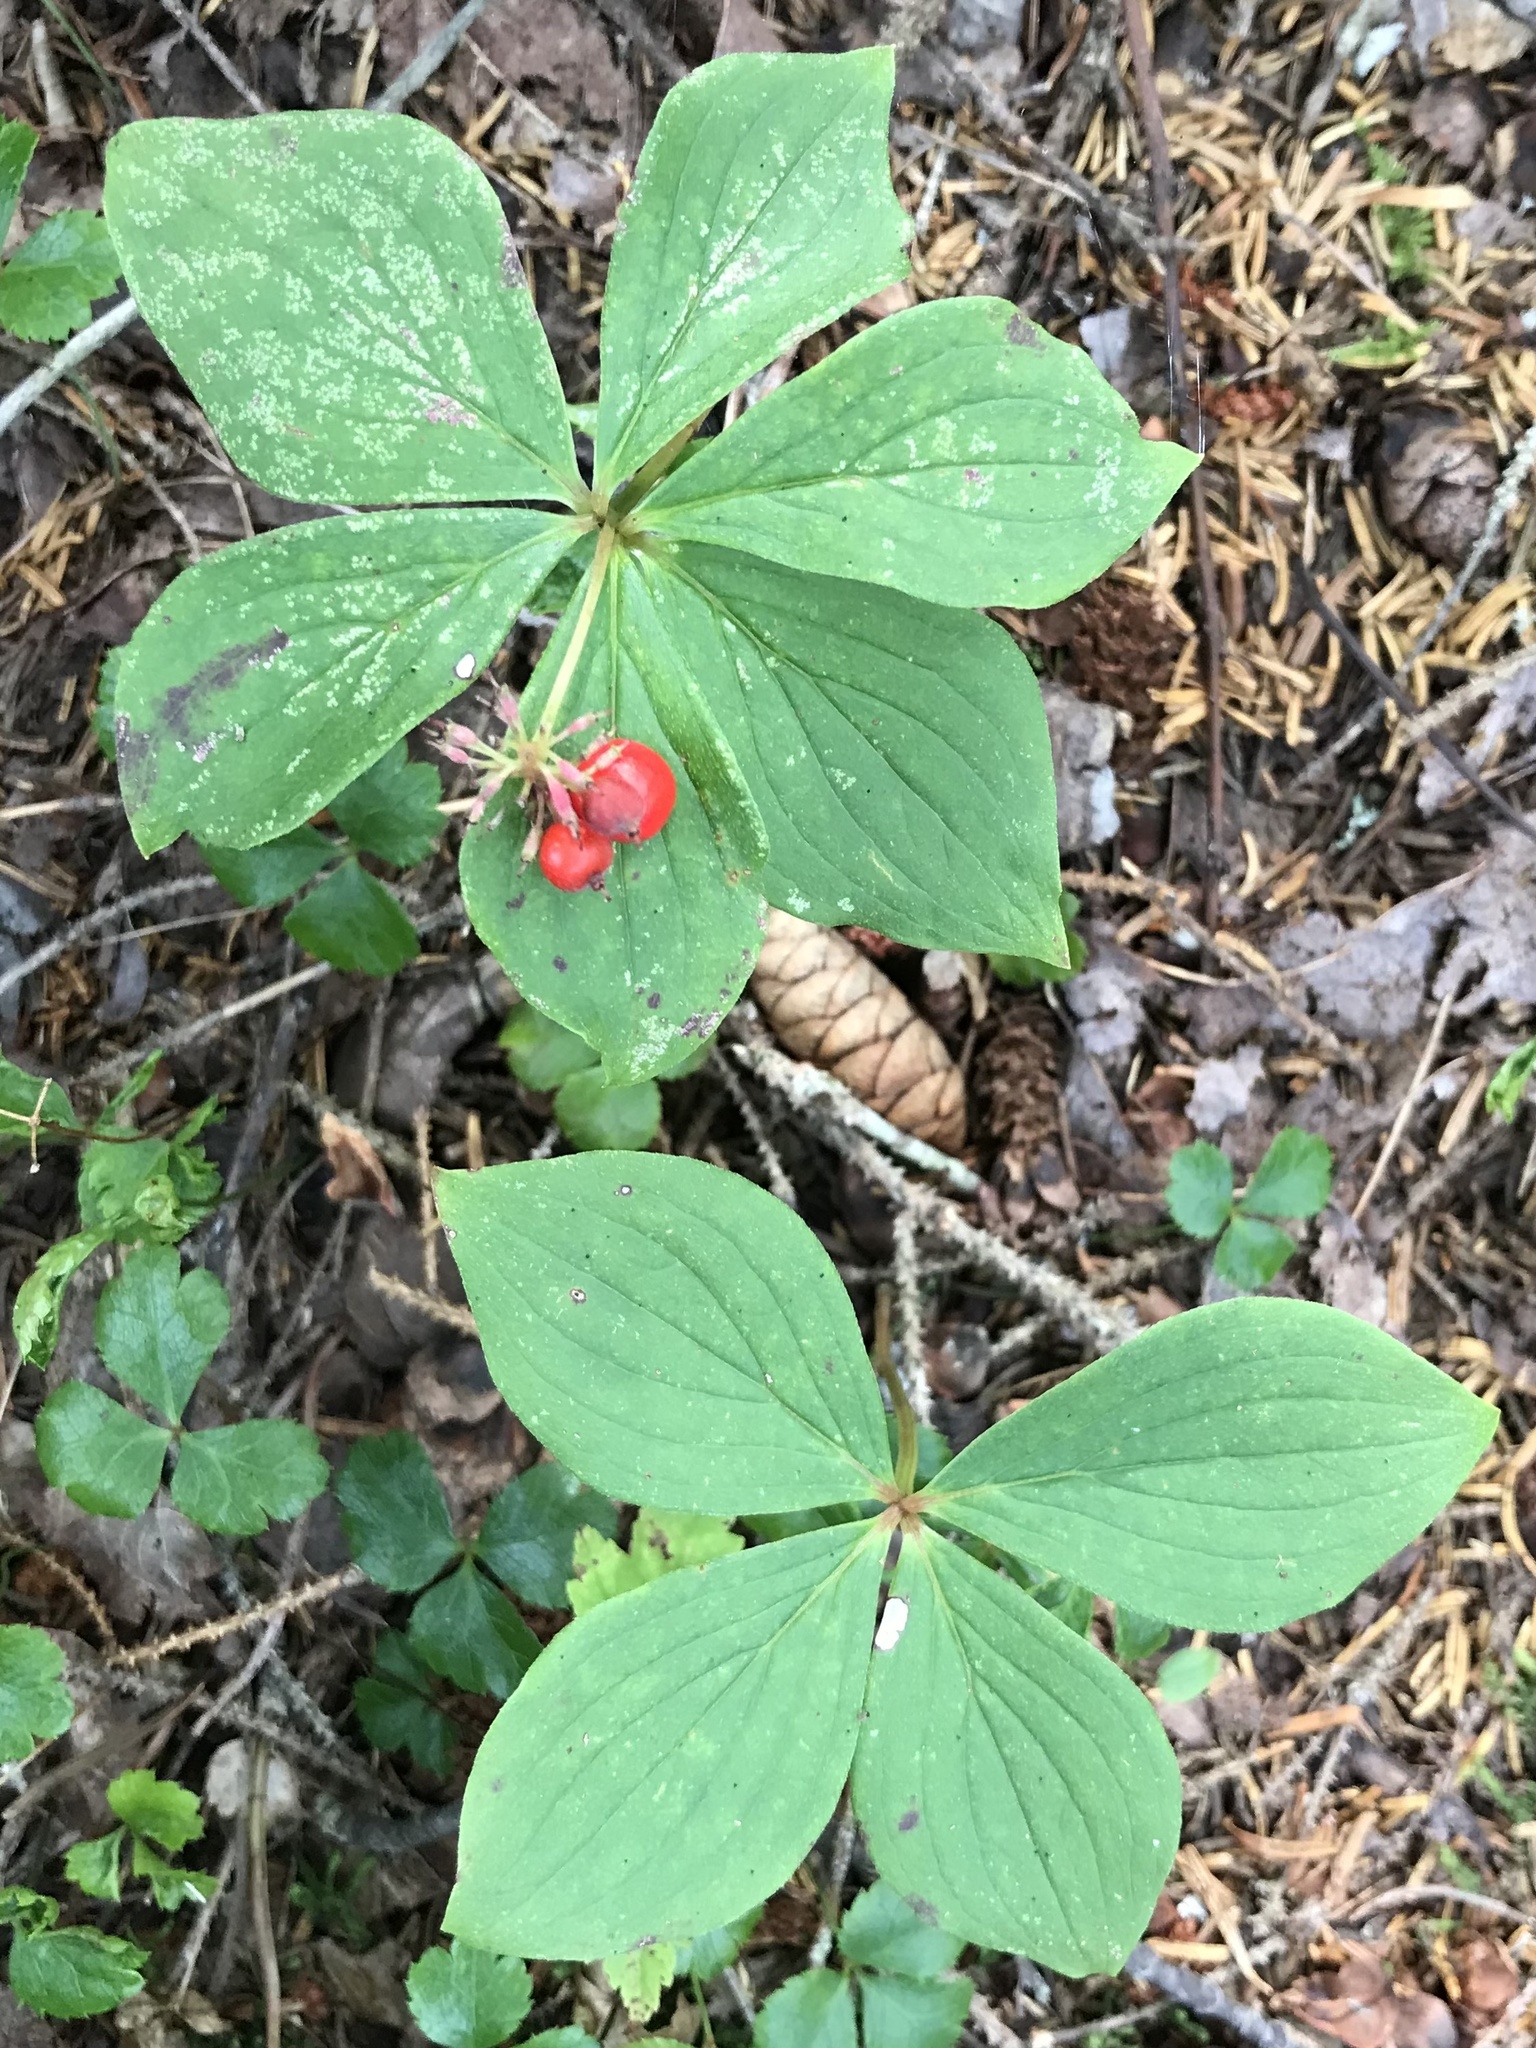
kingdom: Plantae
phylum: Tracheophyta
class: Magnoliopsida
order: Cornales
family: Cornaceae
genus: Cornus
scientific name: Cornus canadensis
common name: Creeping dogwood
